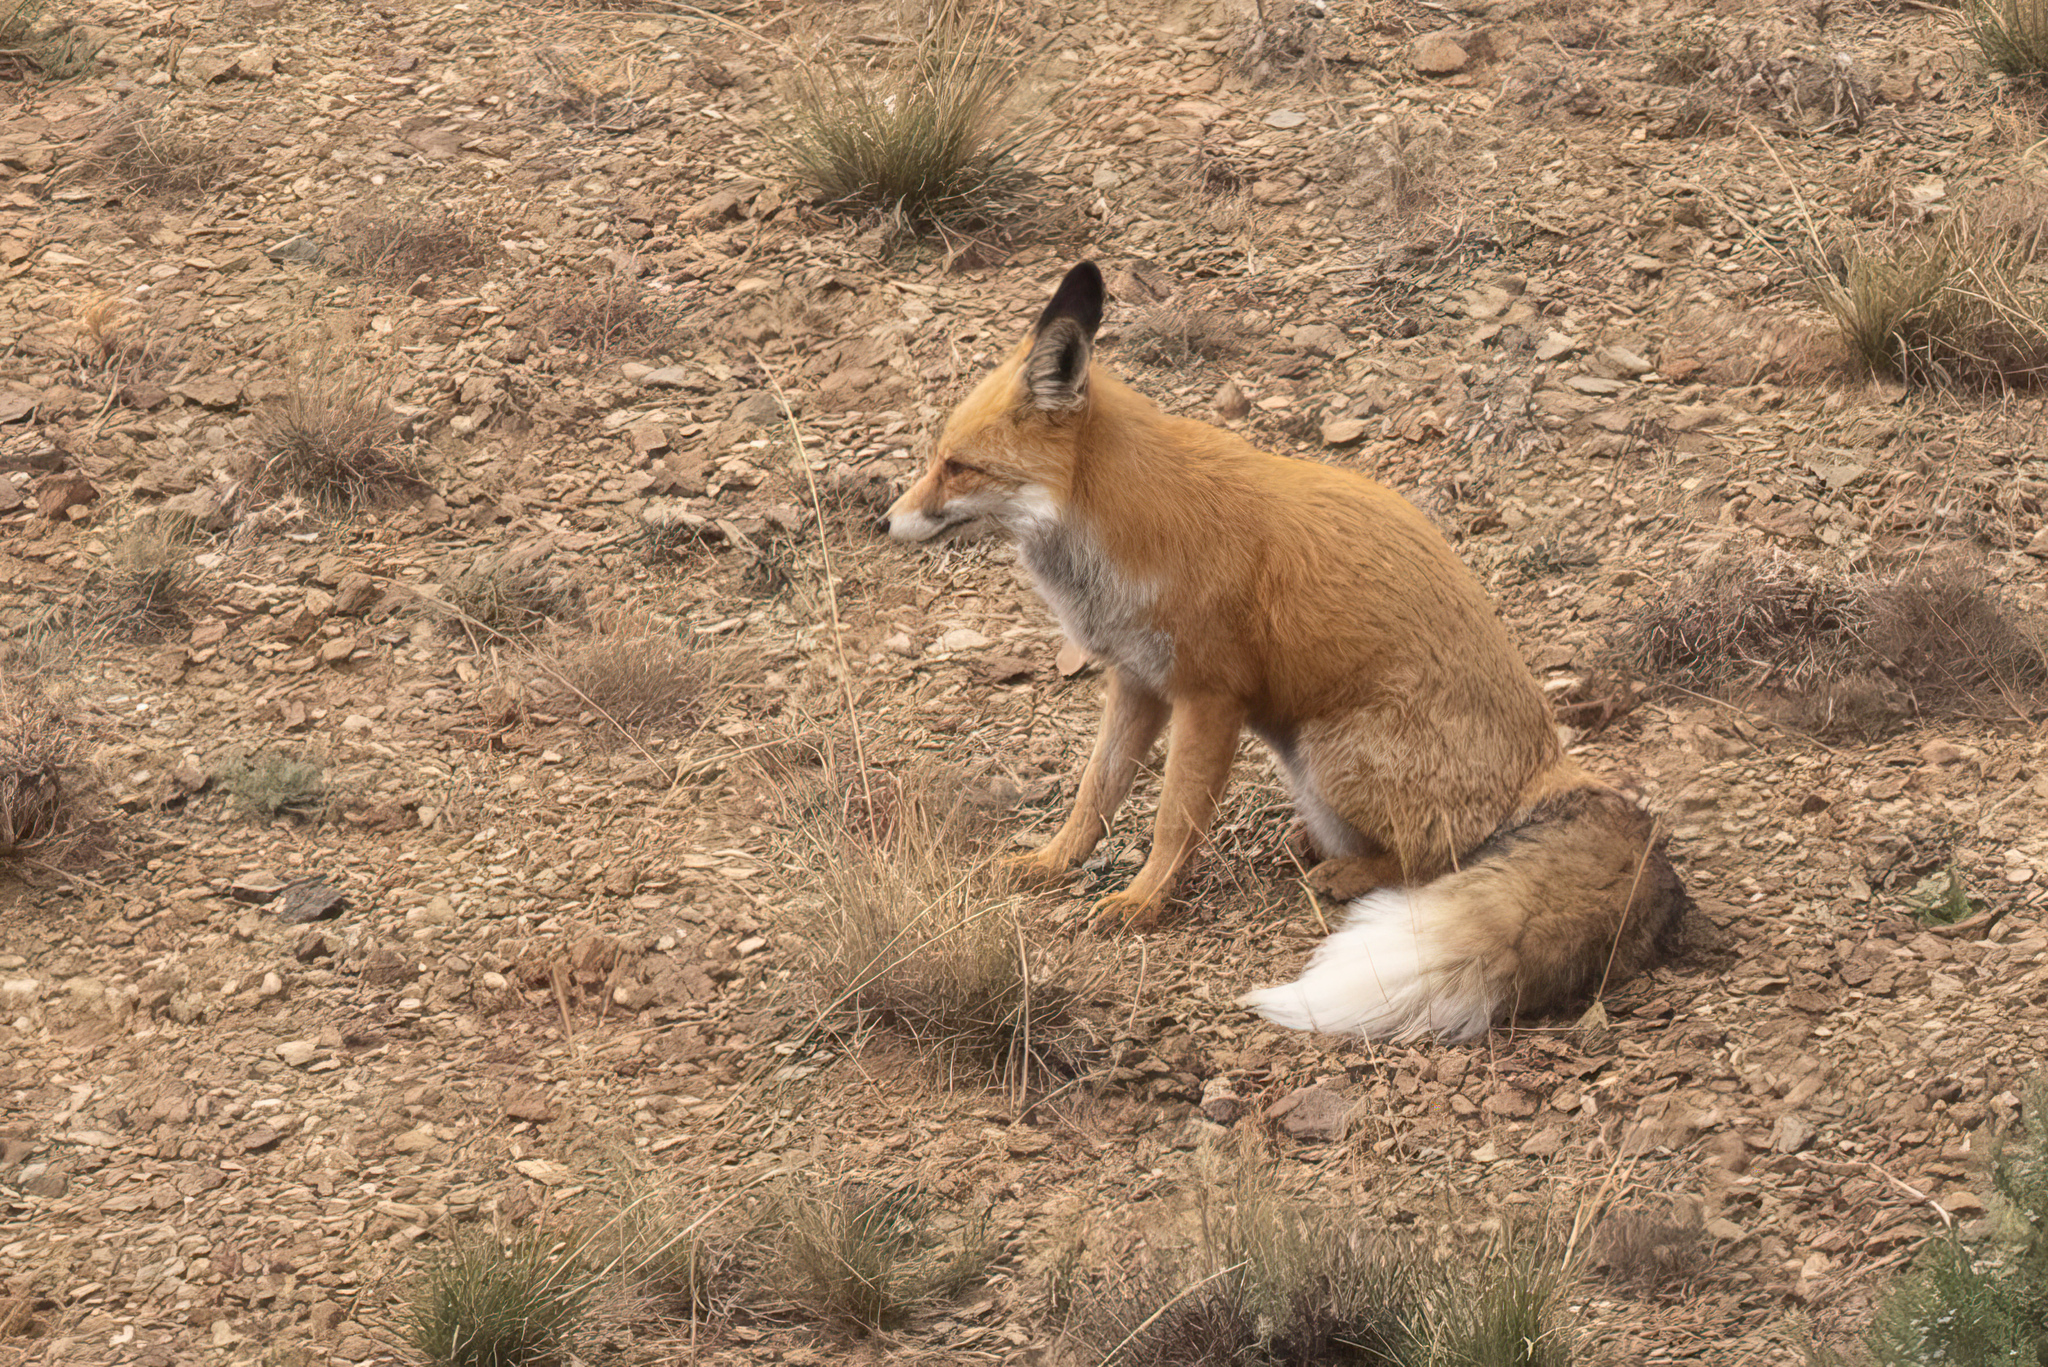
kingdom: Animalia
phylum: Chordata
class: Mammalia
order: Carnivora
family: Canidae
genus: Vulpes
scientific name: Vulpes vulpes
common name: Red fox
